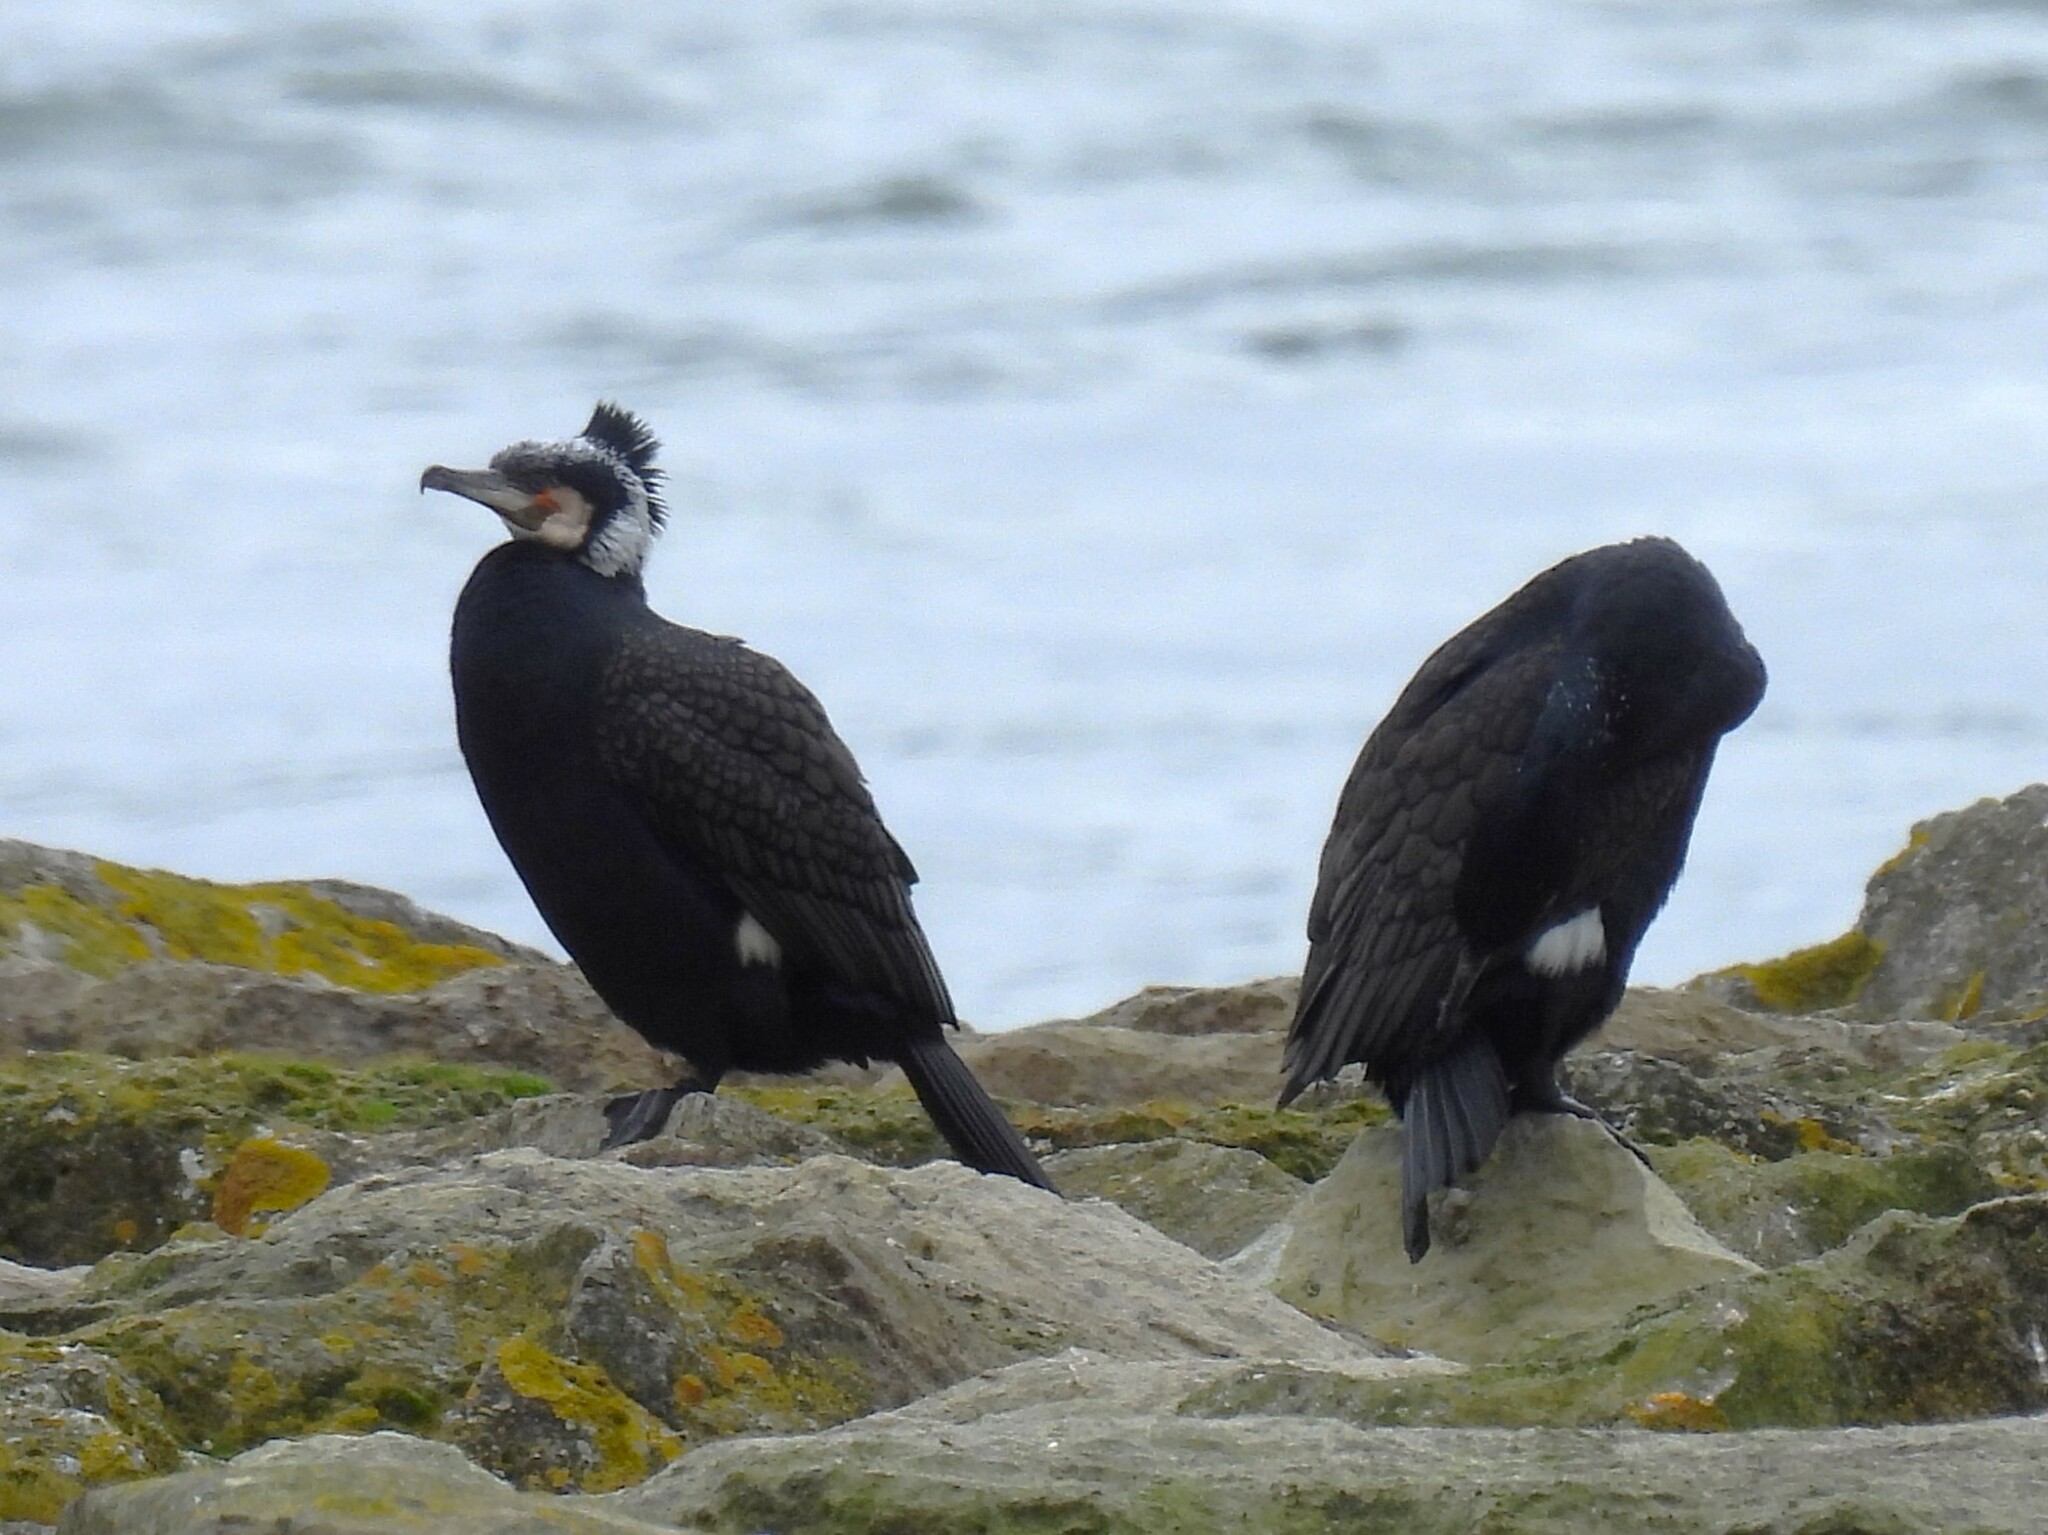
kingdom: Animalia
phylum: Chordata
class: Aves
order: Suliformes
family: Phalacrocoracidae
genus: Phalacrocorax
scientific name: Phalacrocorax carbo
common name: Great cormorant
